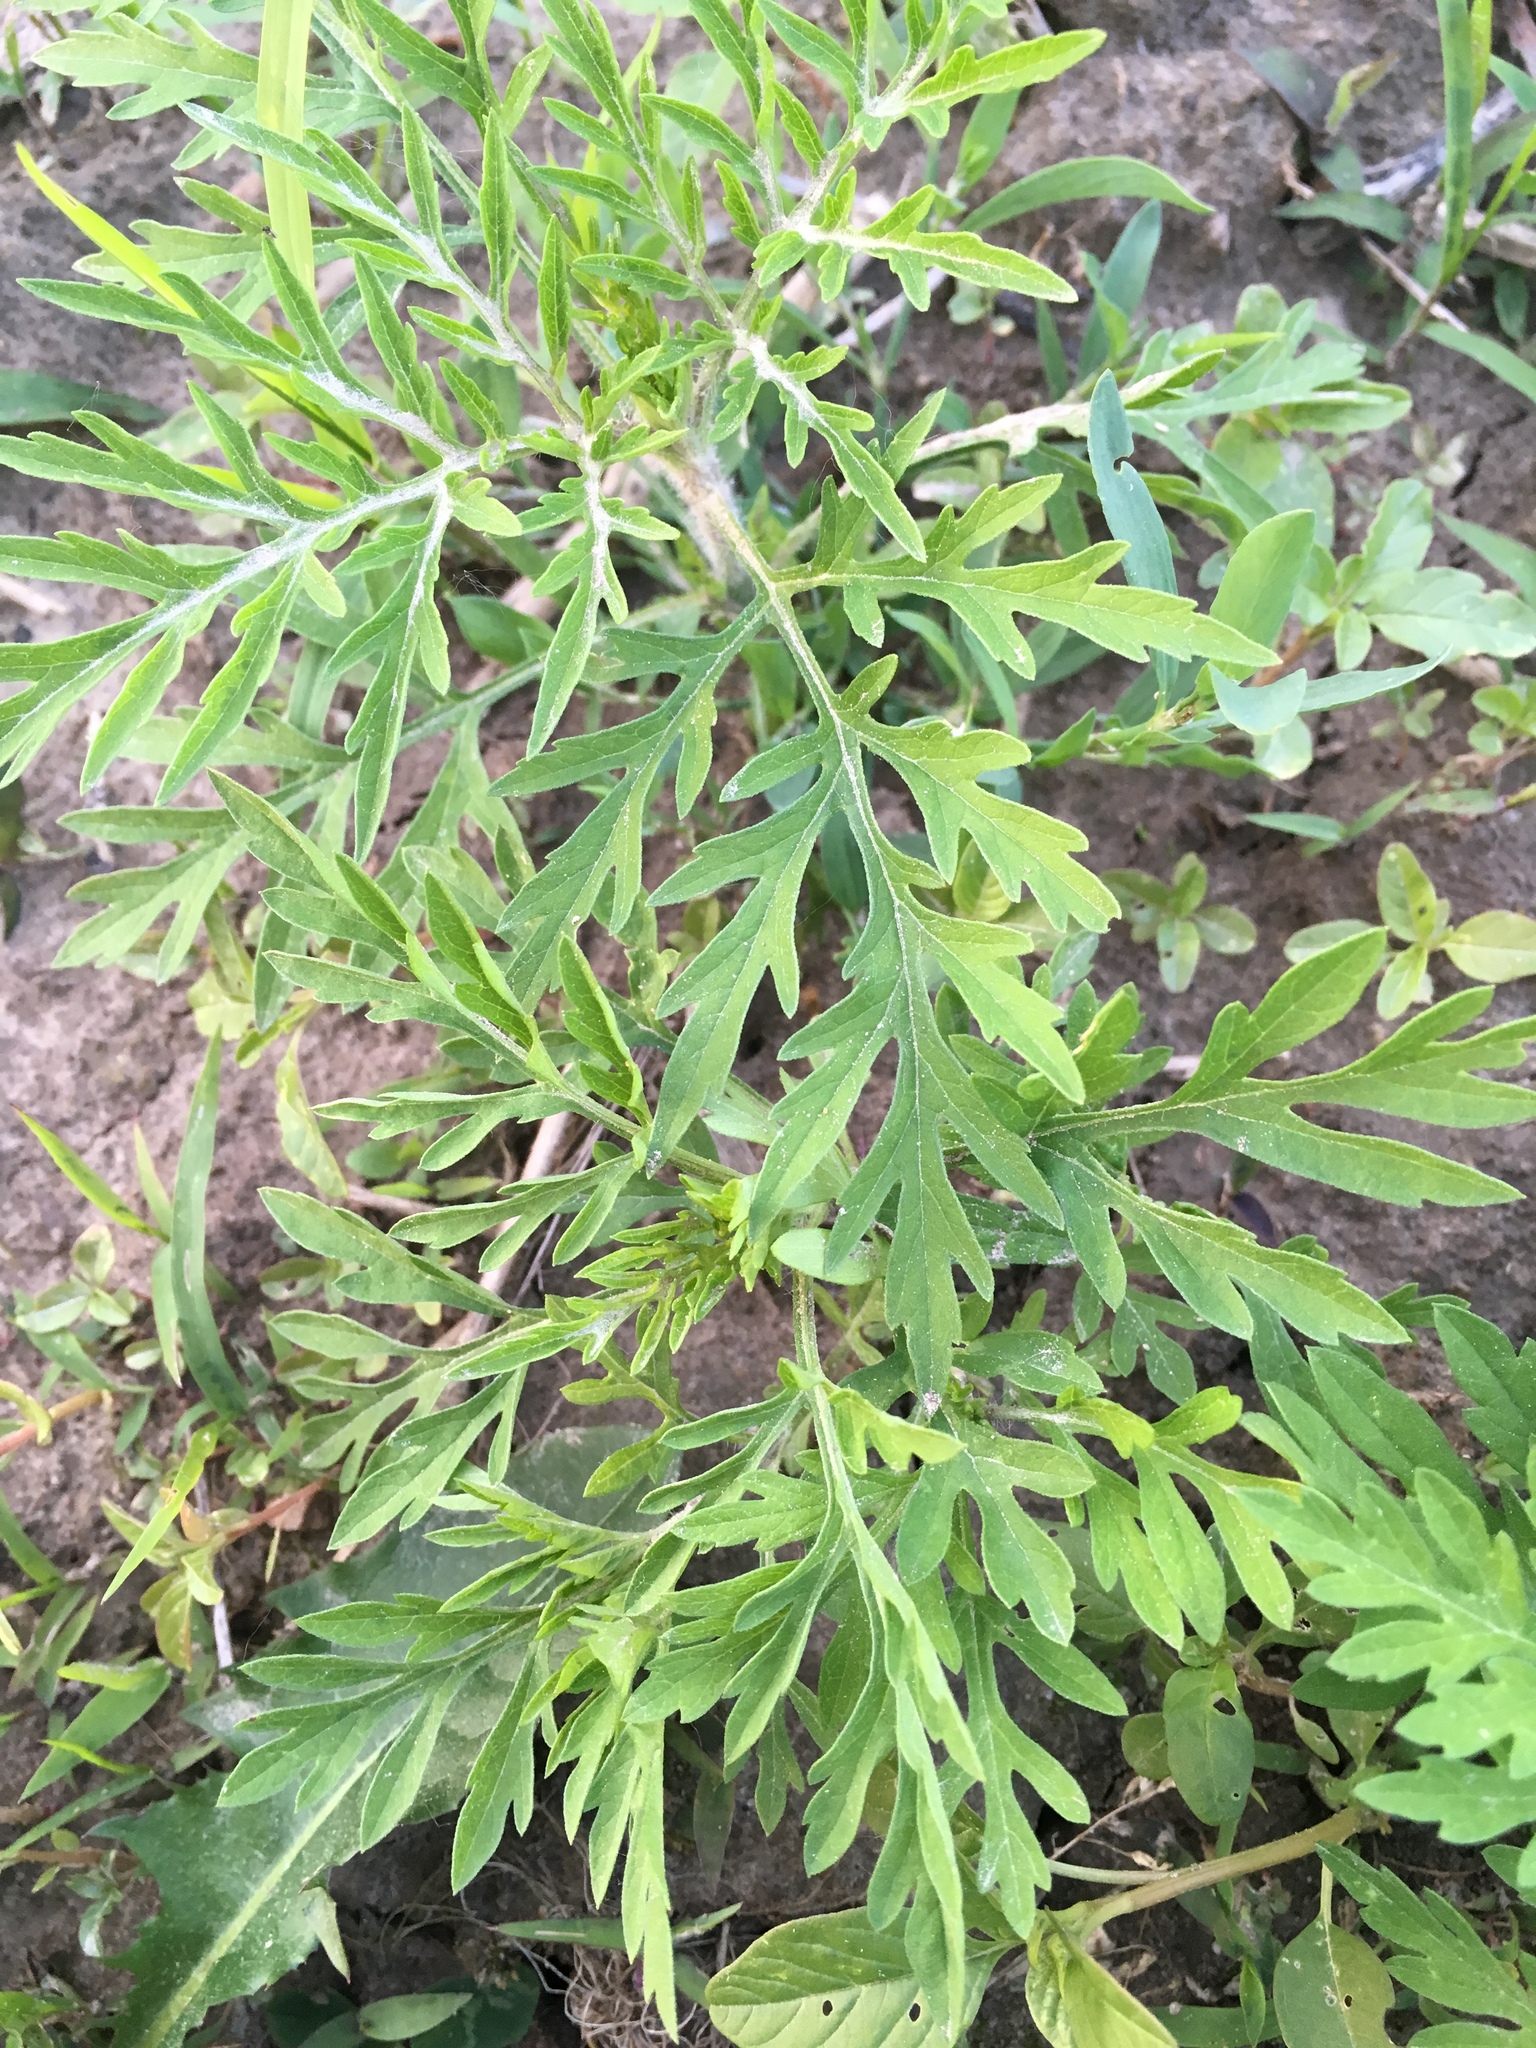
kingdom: Plantae
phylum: Tracheophyta
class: Magnoliopsida
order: Asterales
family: Asteraceae
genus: Ambrosia
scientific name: Ambrosia artemisiifolia
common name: Annual ragweed
